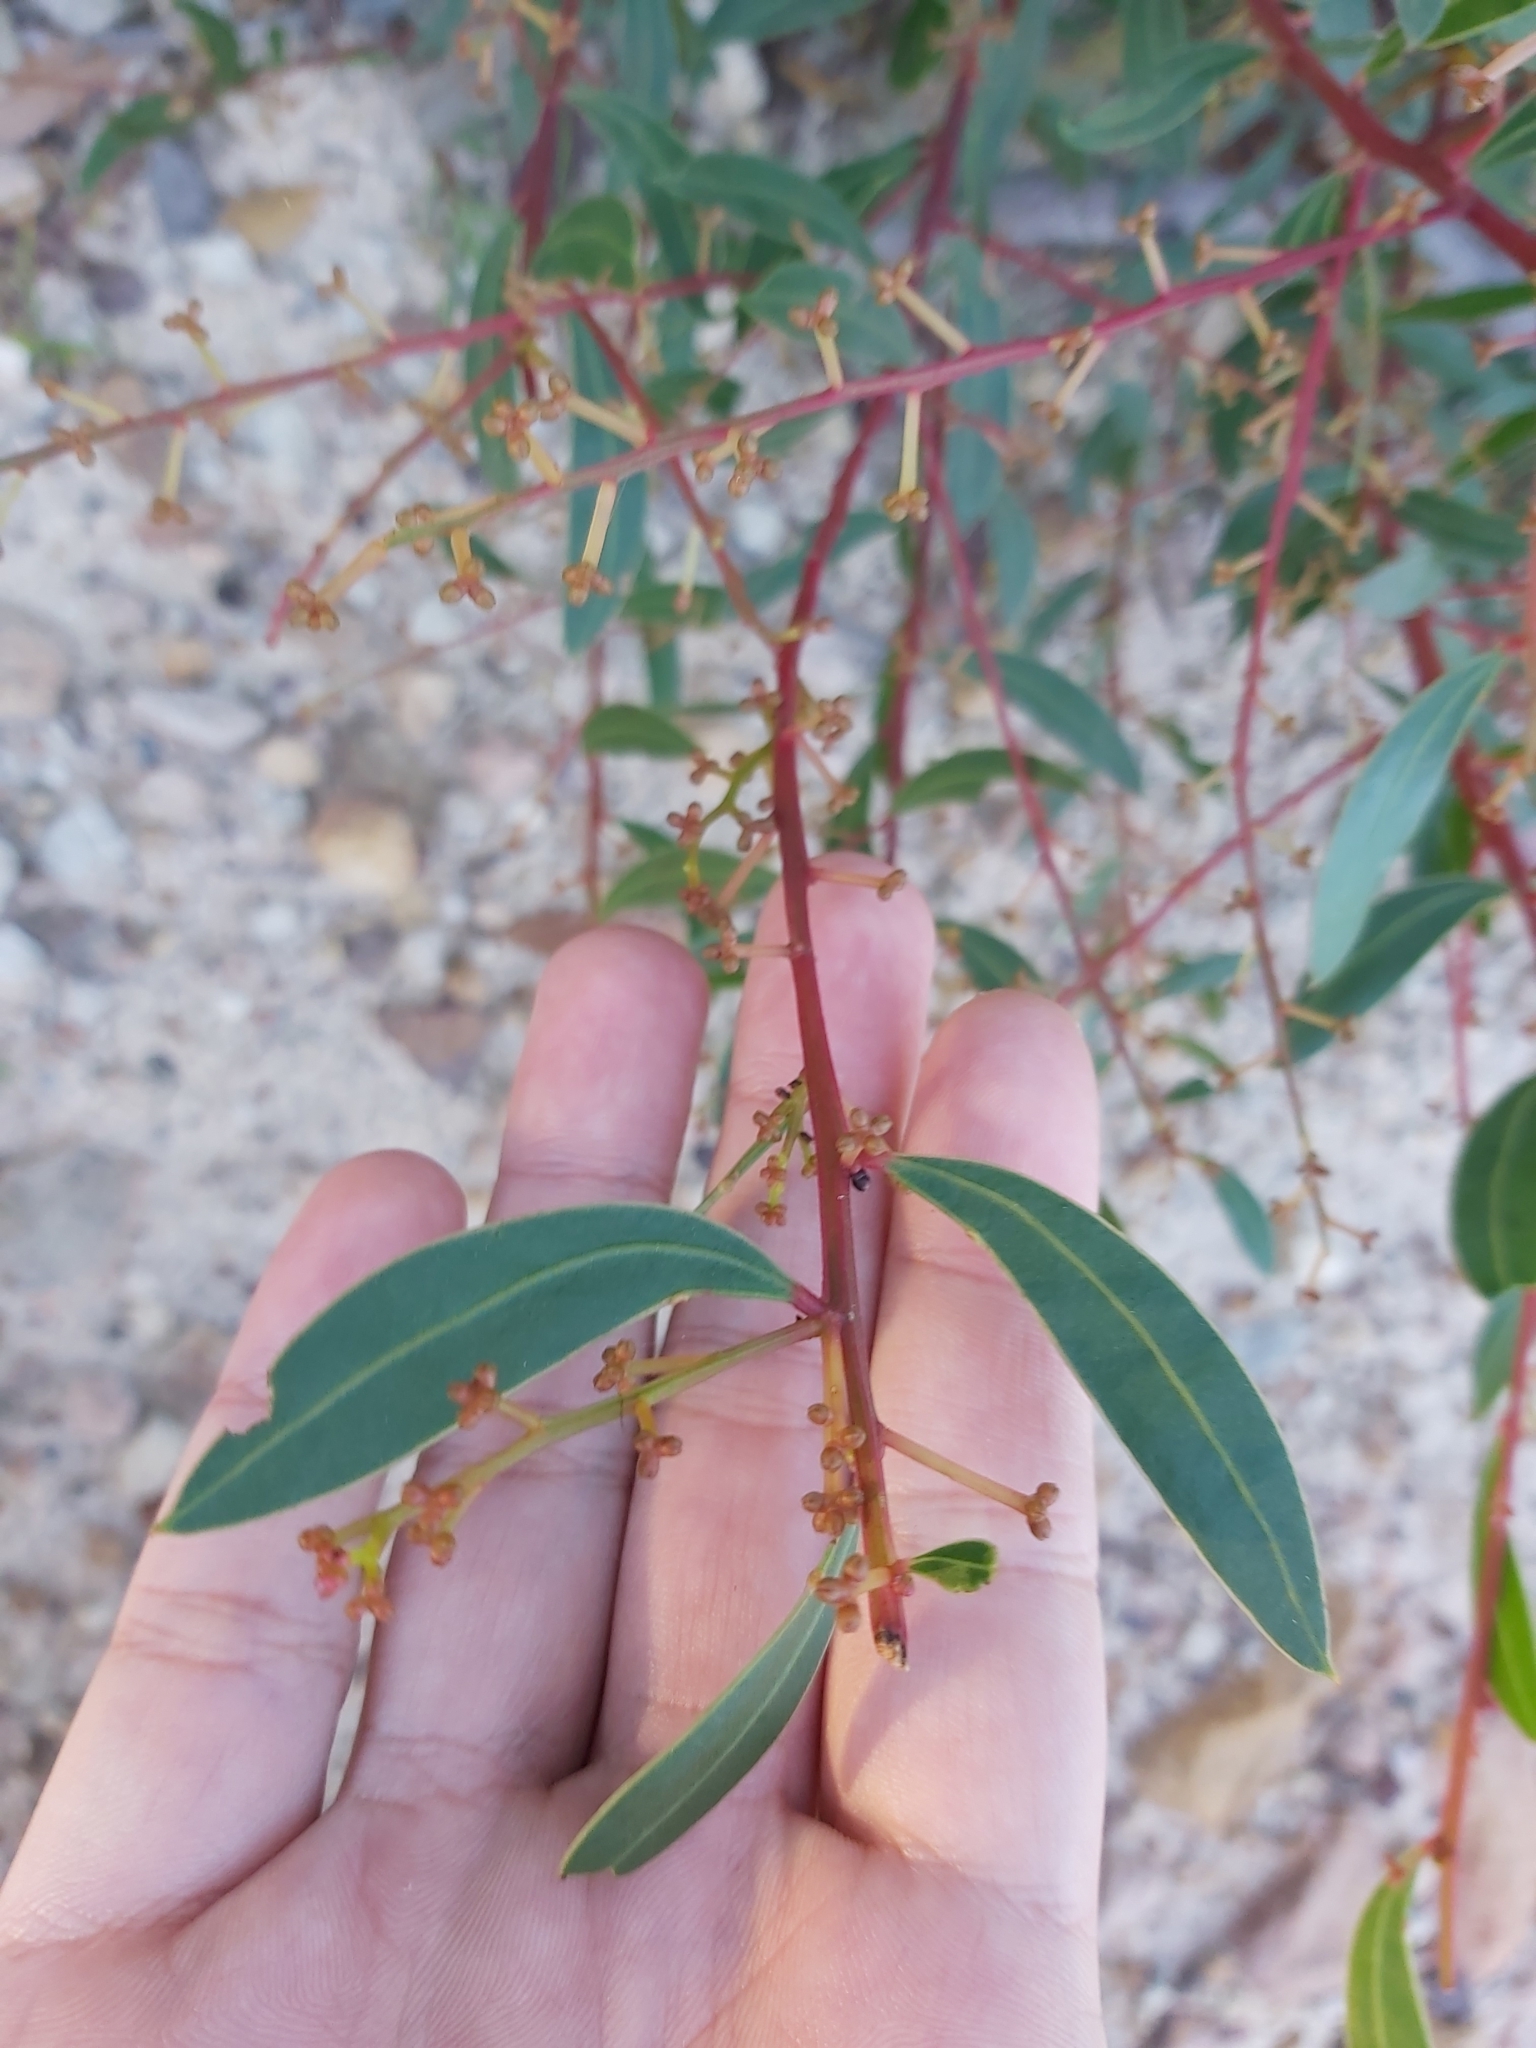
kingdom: Plantae
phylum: Tracheophyta
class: Magnoliopsida
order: Fabales
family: Fabaceae
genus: Acacia
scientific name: Acacia myrtifolia
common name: Myrtle wattle
